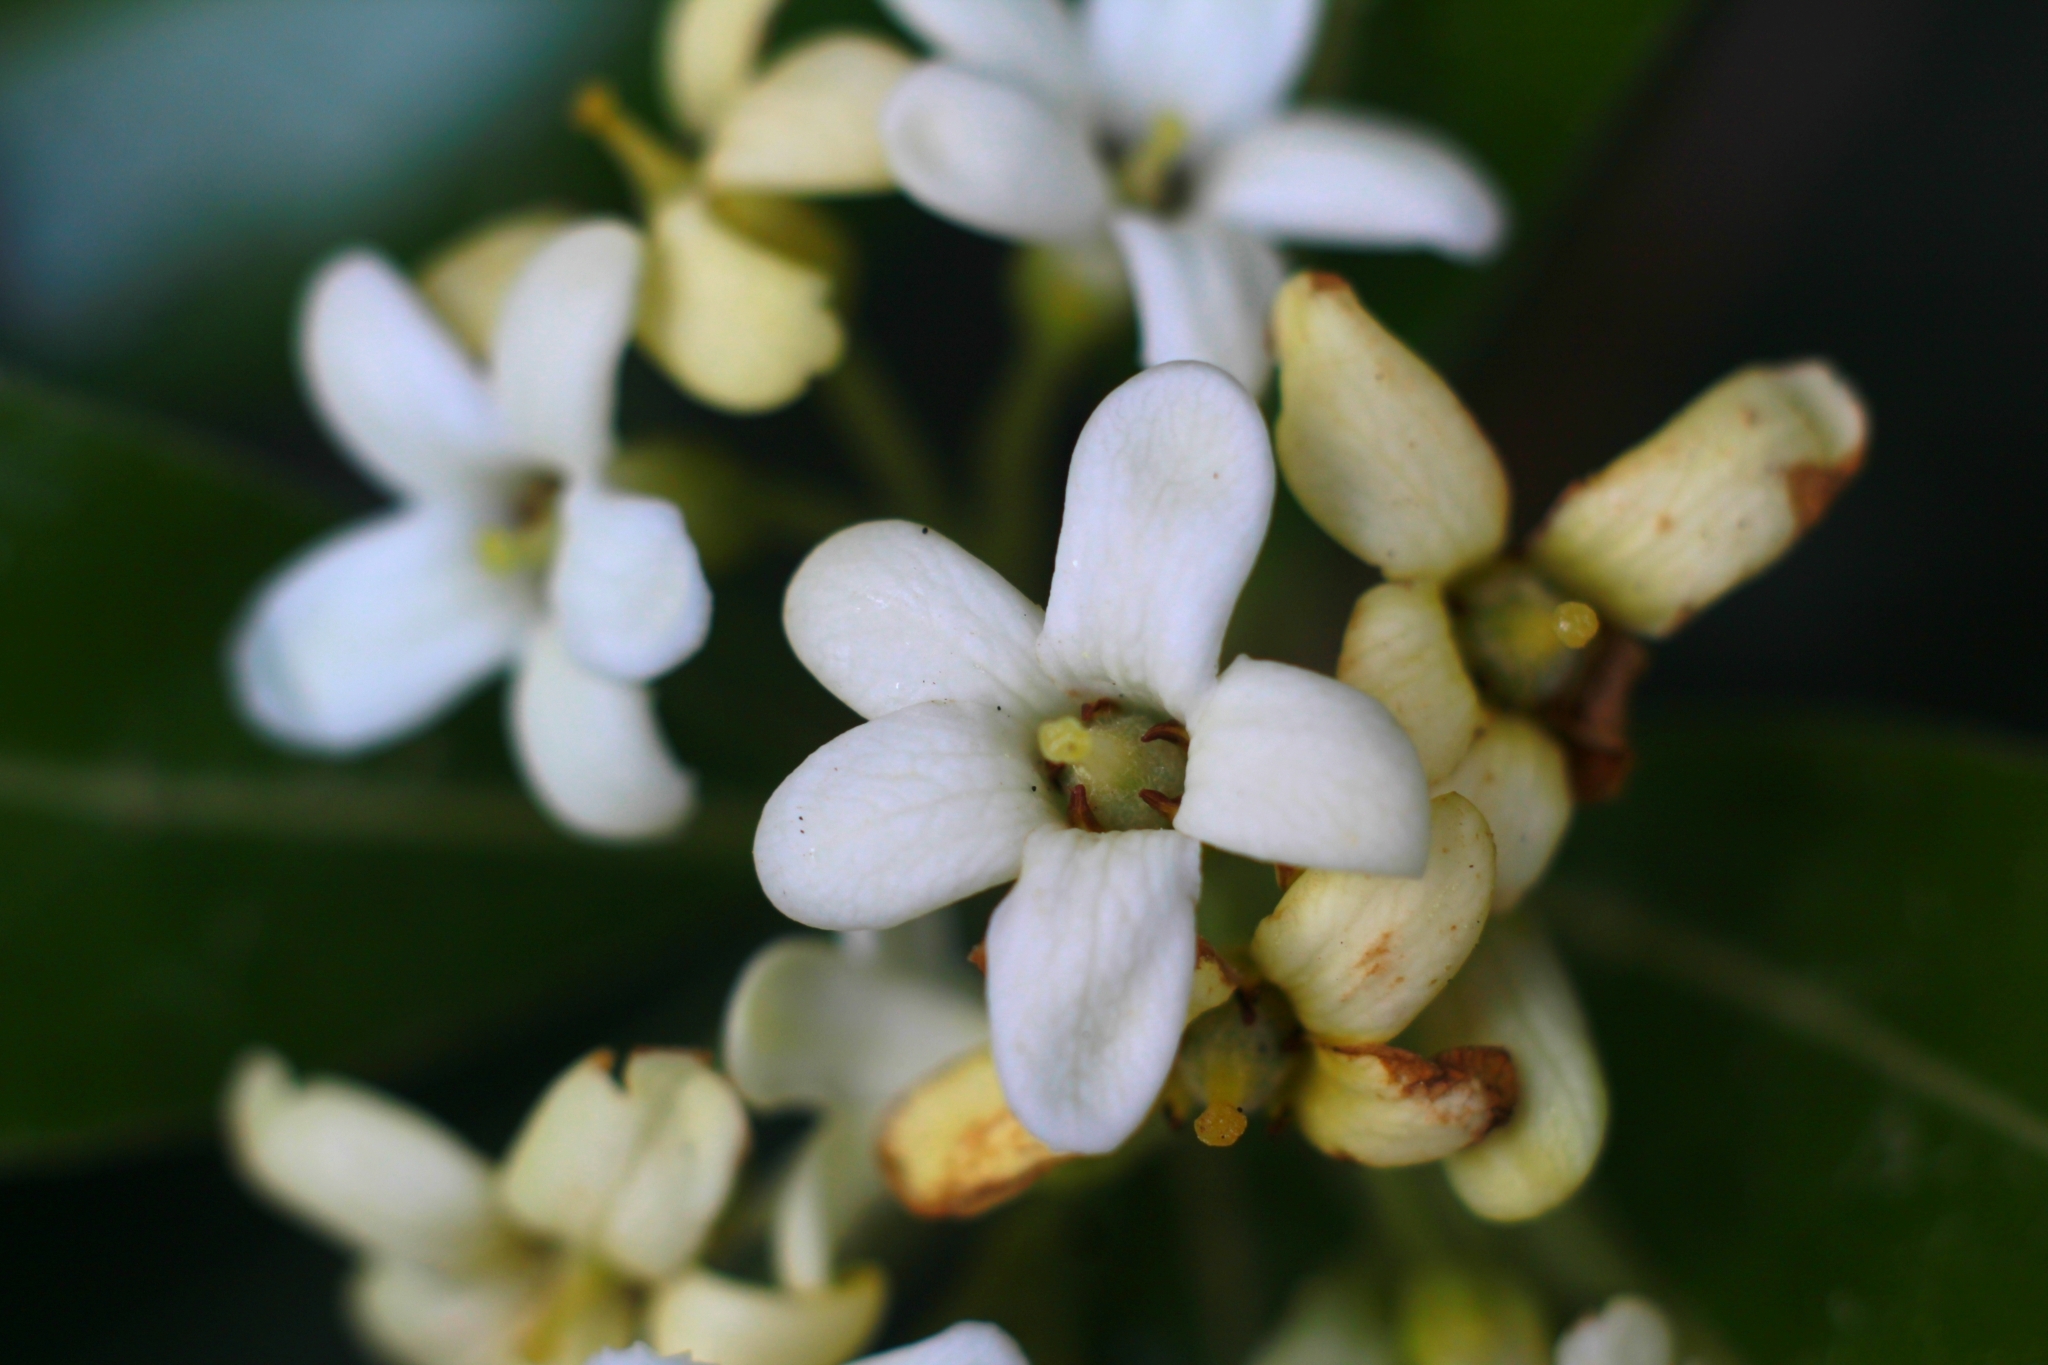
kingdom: Plantae
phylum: Tracheophyta
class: Magnoliopsida
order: Apiales
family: Pittosporaceae
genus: Pittosporum
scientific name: Pittosporum tobira
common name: Japanese cheesewood
